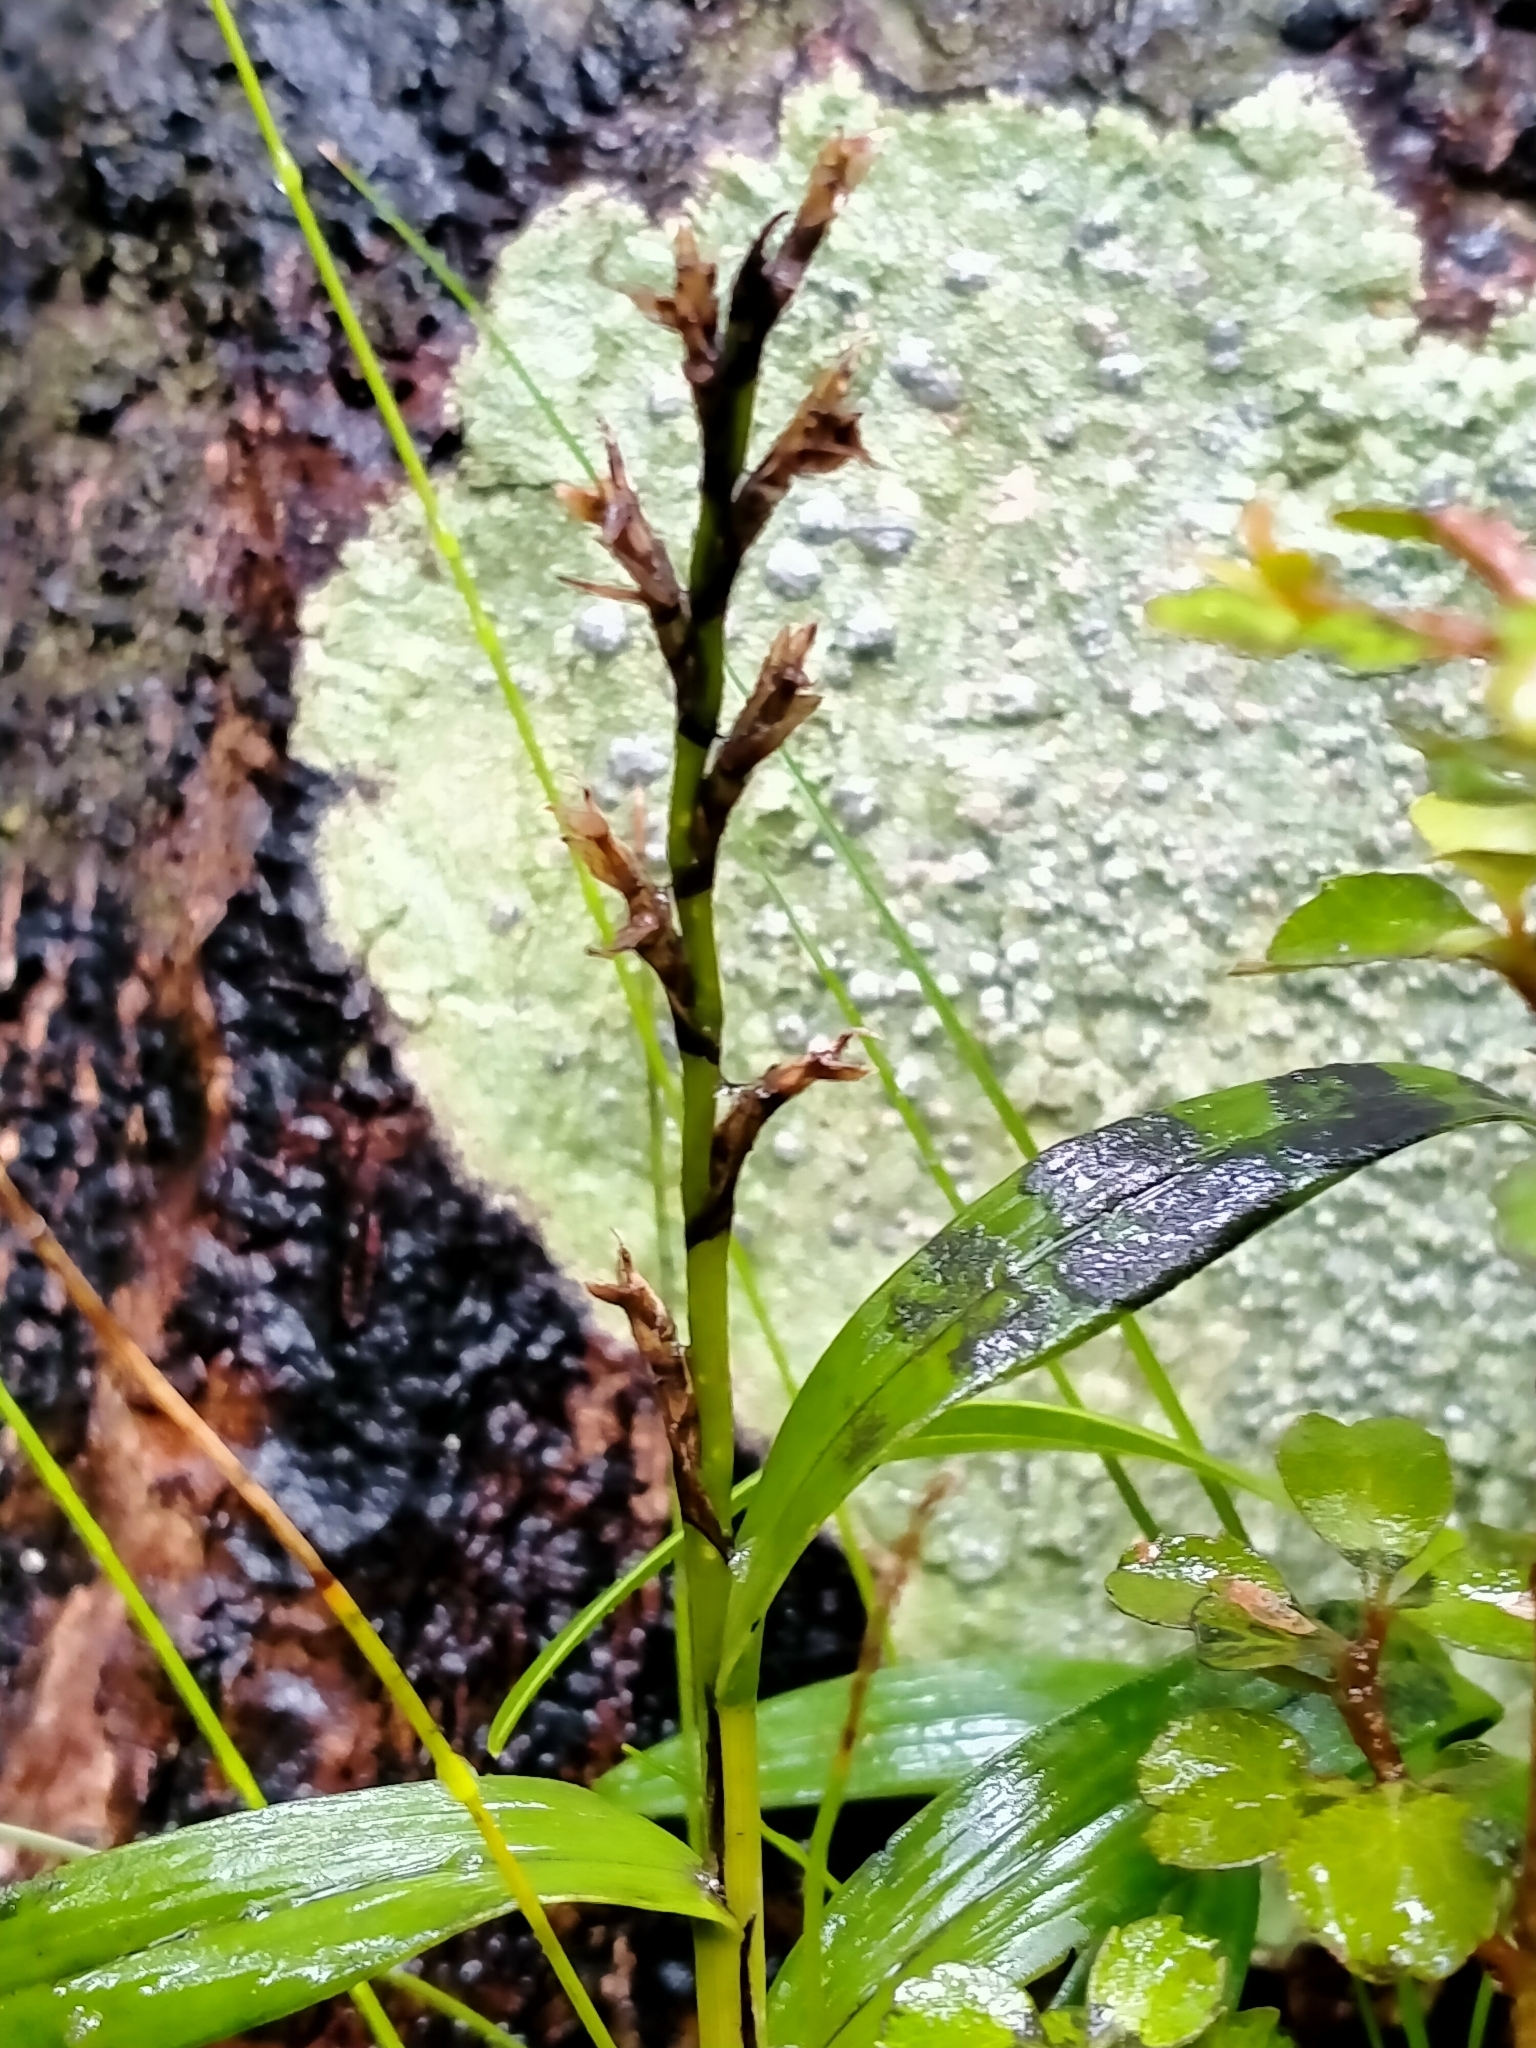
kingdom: Plantae
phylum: Tracheophyta
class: Liliopsida
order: Asparagales
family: Orchidaceae
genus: Earina
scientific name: Earina autumnalis
